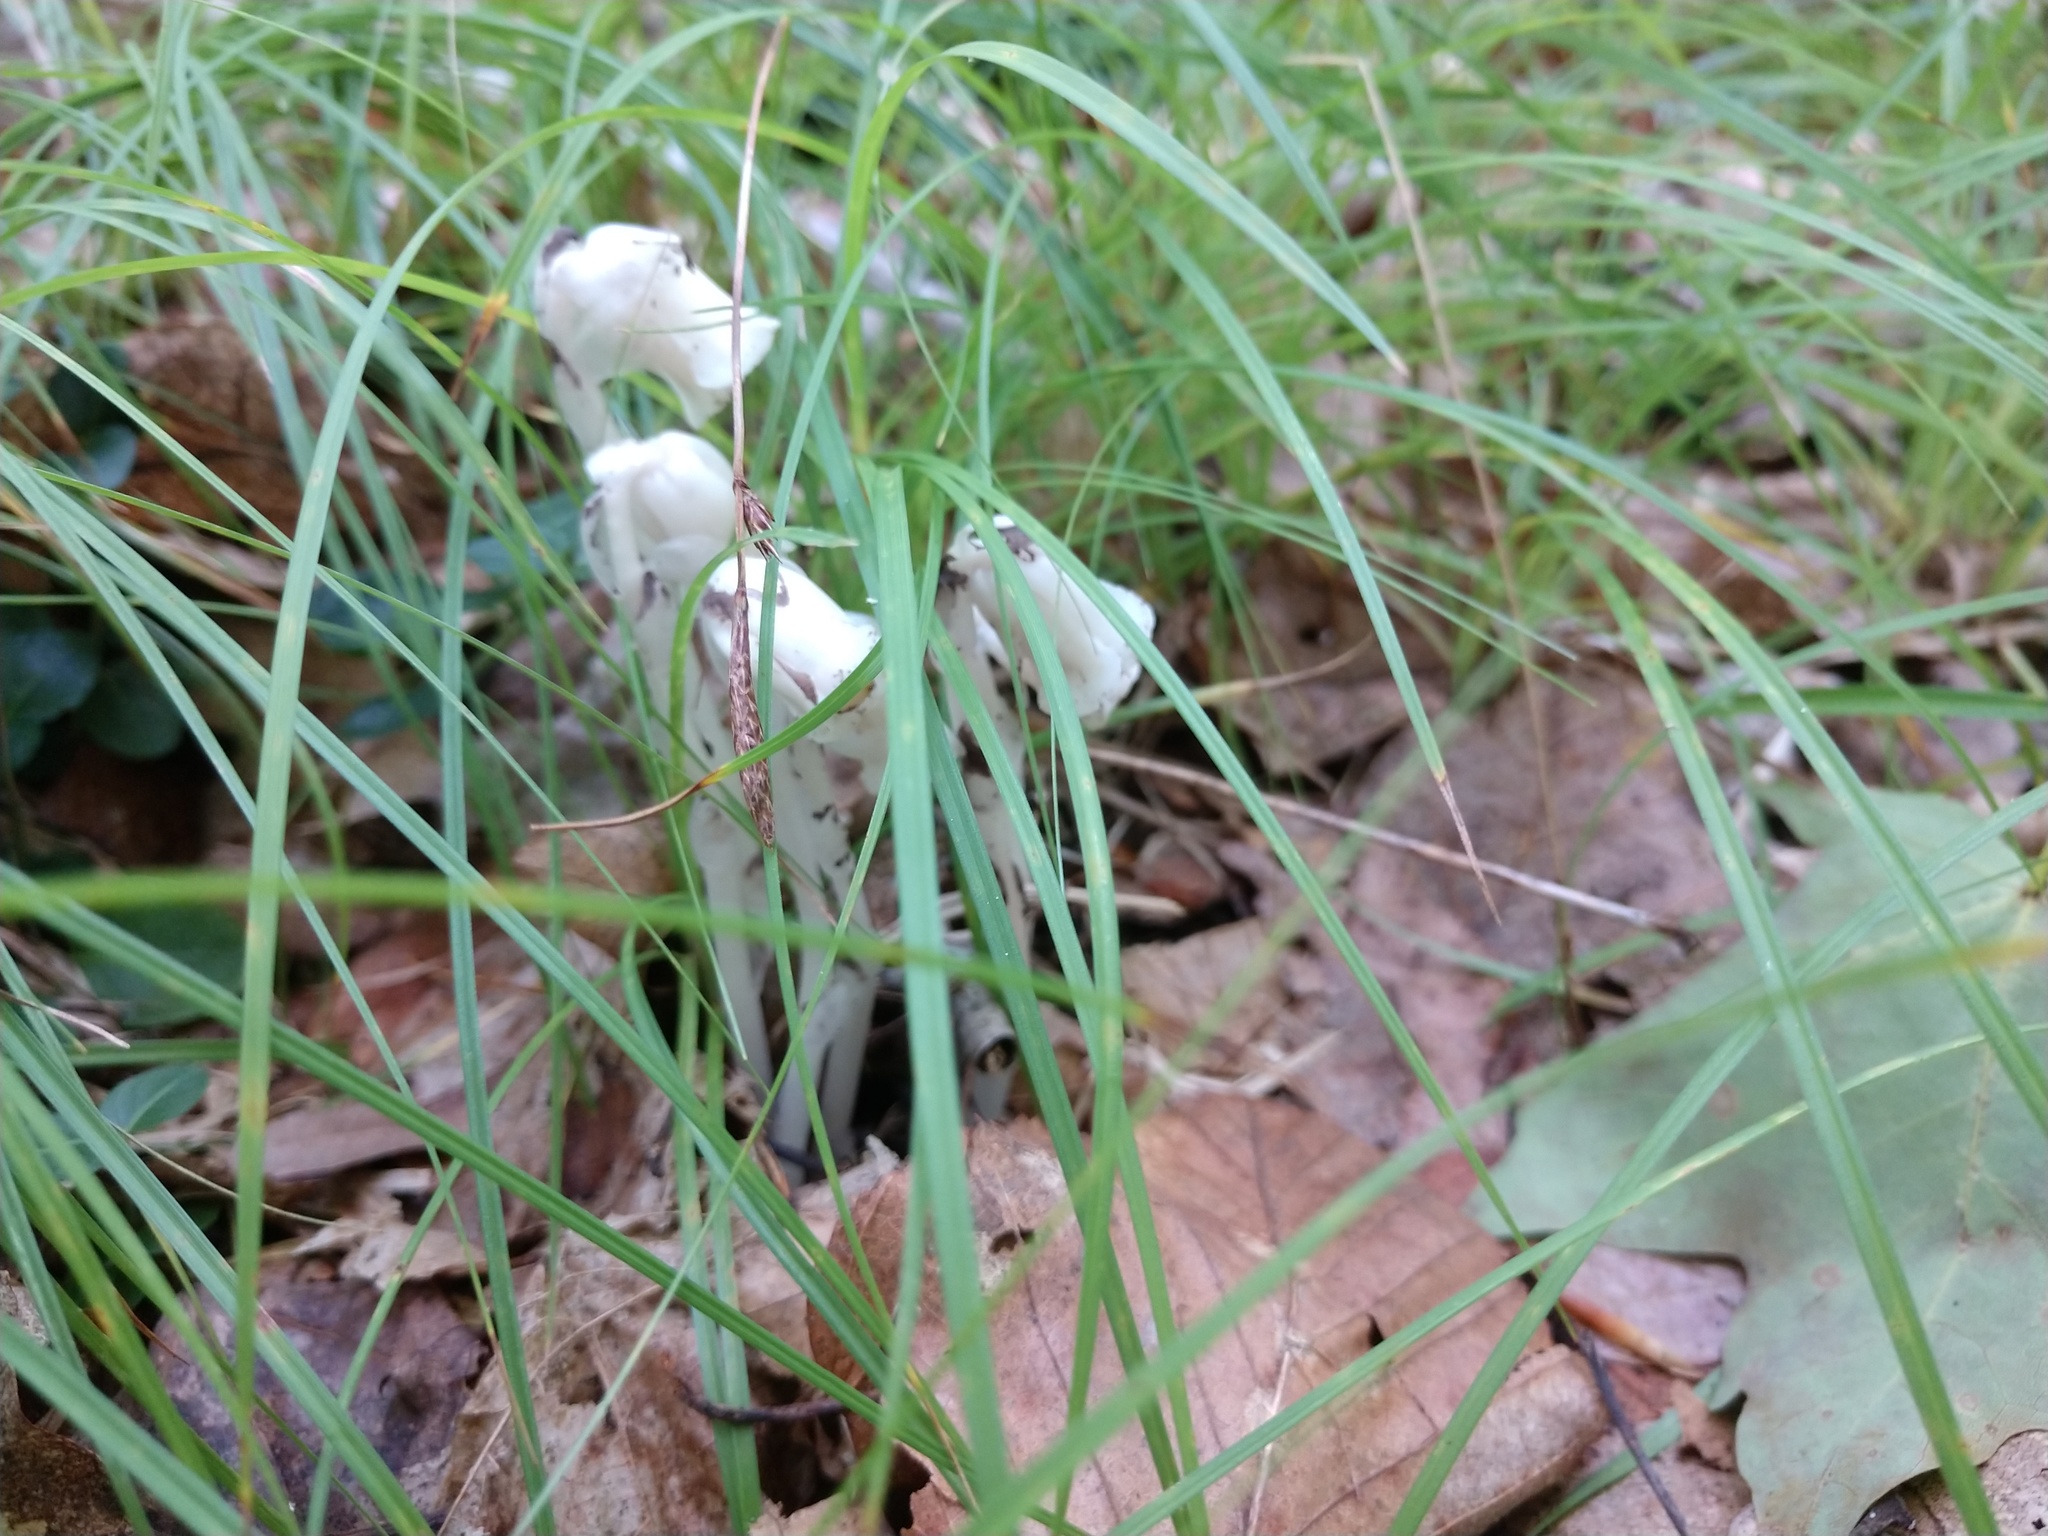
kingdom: Plantae
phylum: Tracheophyta
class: Magnoliopsida
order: Ericales
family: Ericaceae
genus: Monotropa
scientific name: Monotropa uniflora
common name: Convulsion root
